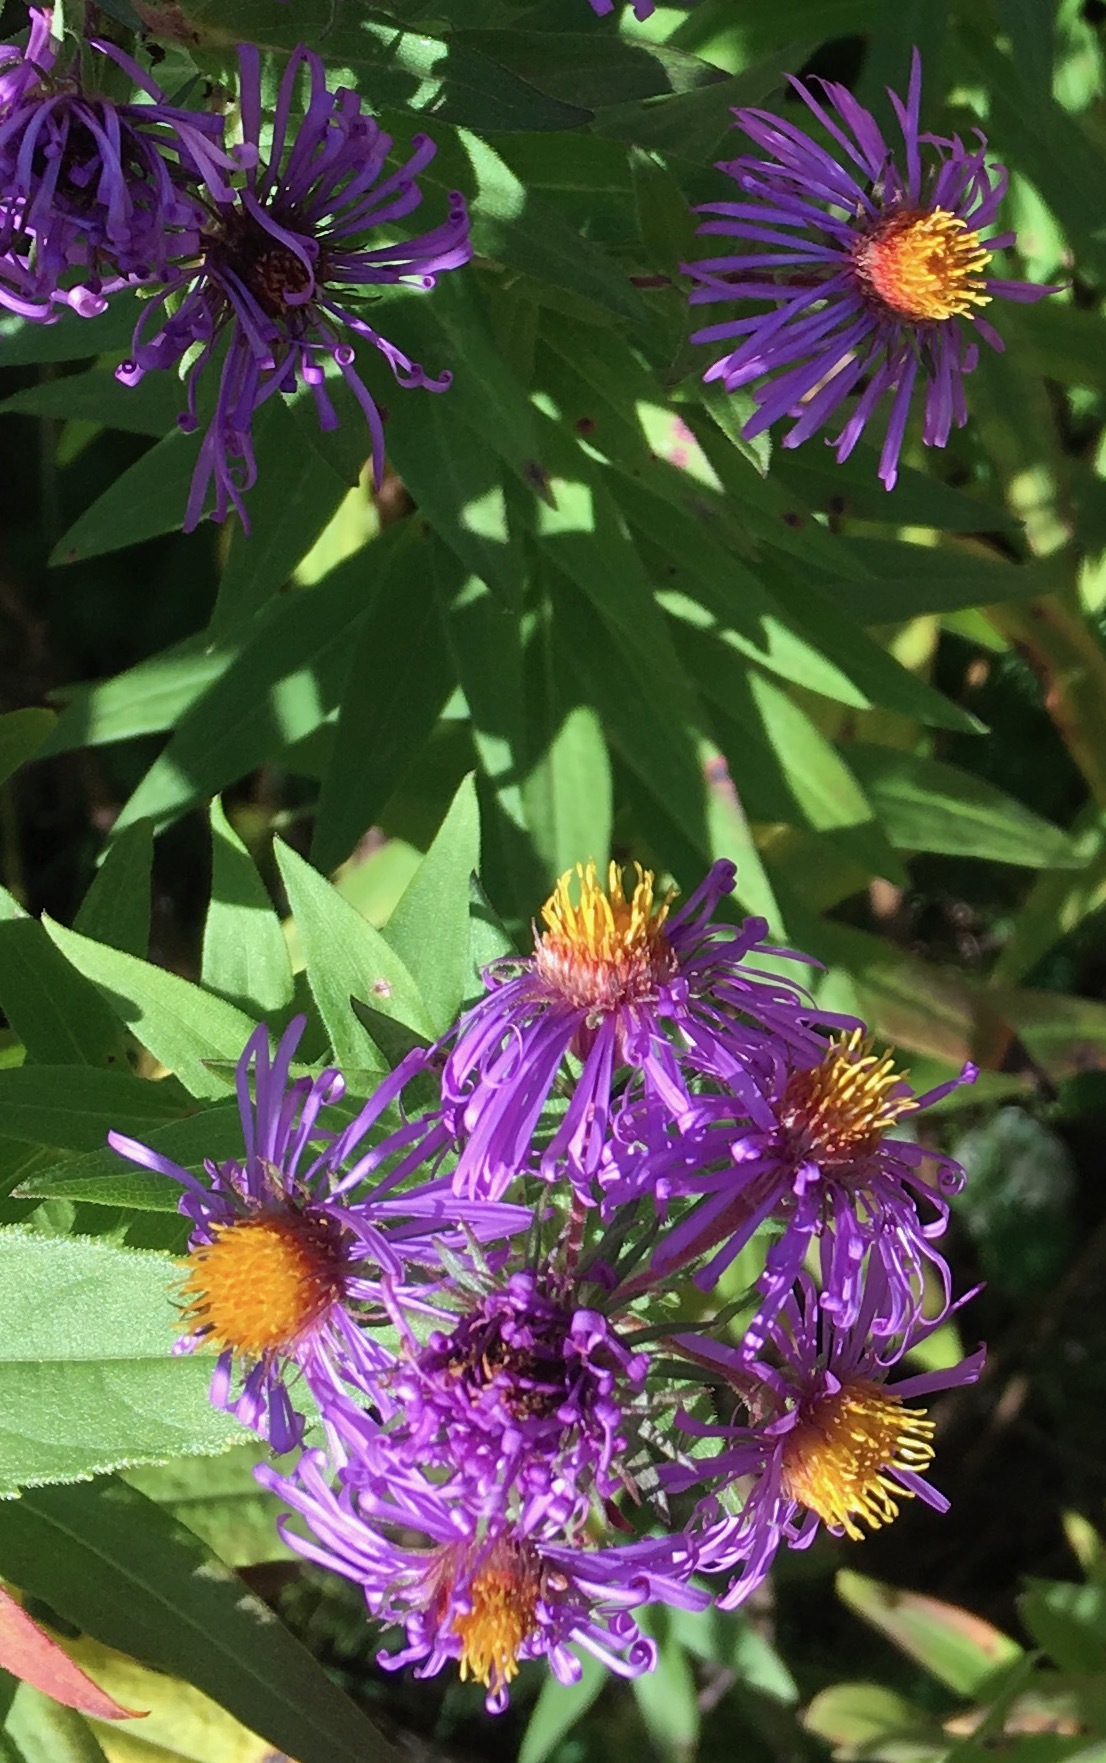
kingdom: Plantae
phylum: Tracheophyta
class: Magnoliopsida
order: Asterales
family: Asteraceae
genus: Symphyotrichum
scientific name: Symphyotrichum novae-angliae
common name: Michaelmas daisy
